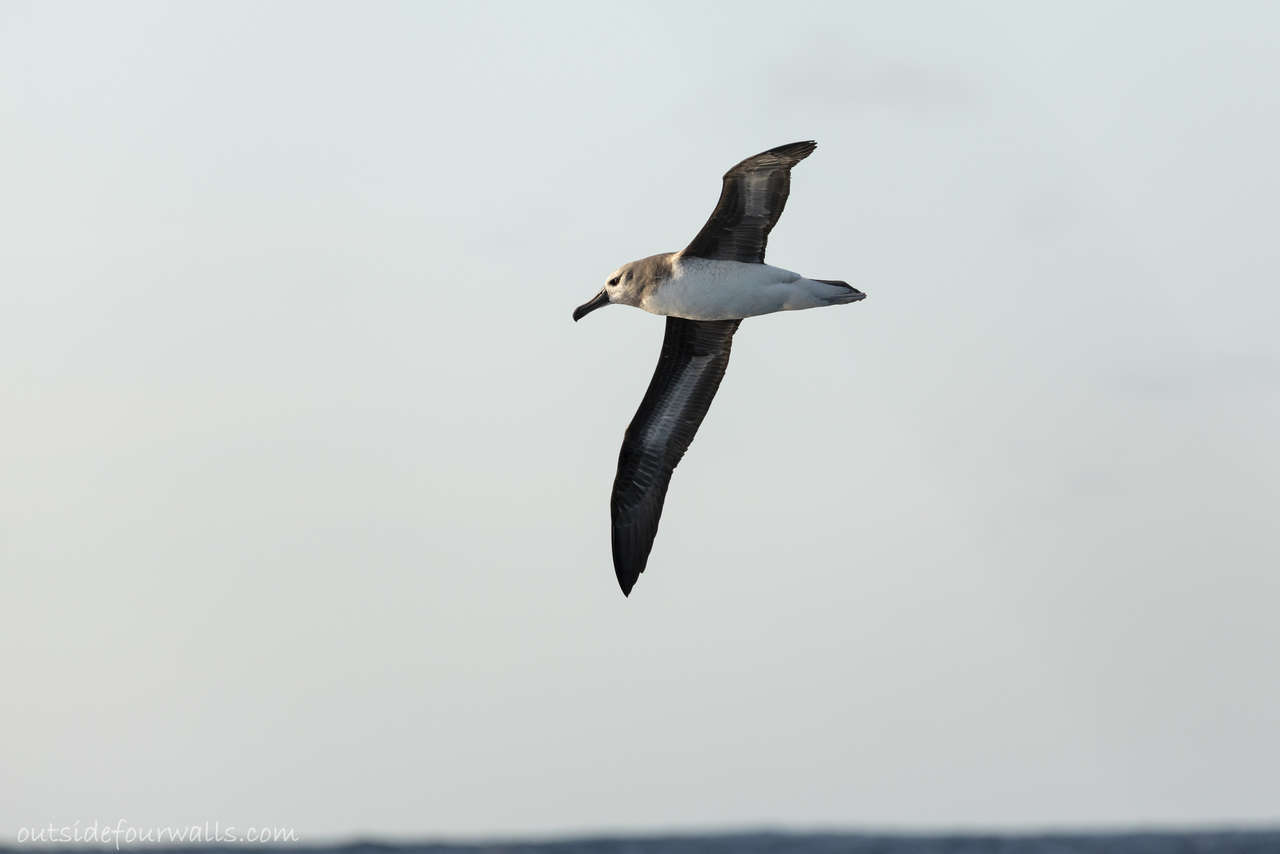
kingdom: Animalia
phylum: Chordata
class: Aves
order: Procellariiformes
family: Diomedeidae
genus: Thalassarche
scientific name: Thalassarche chrysostoma
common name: Grey-headed albatross
